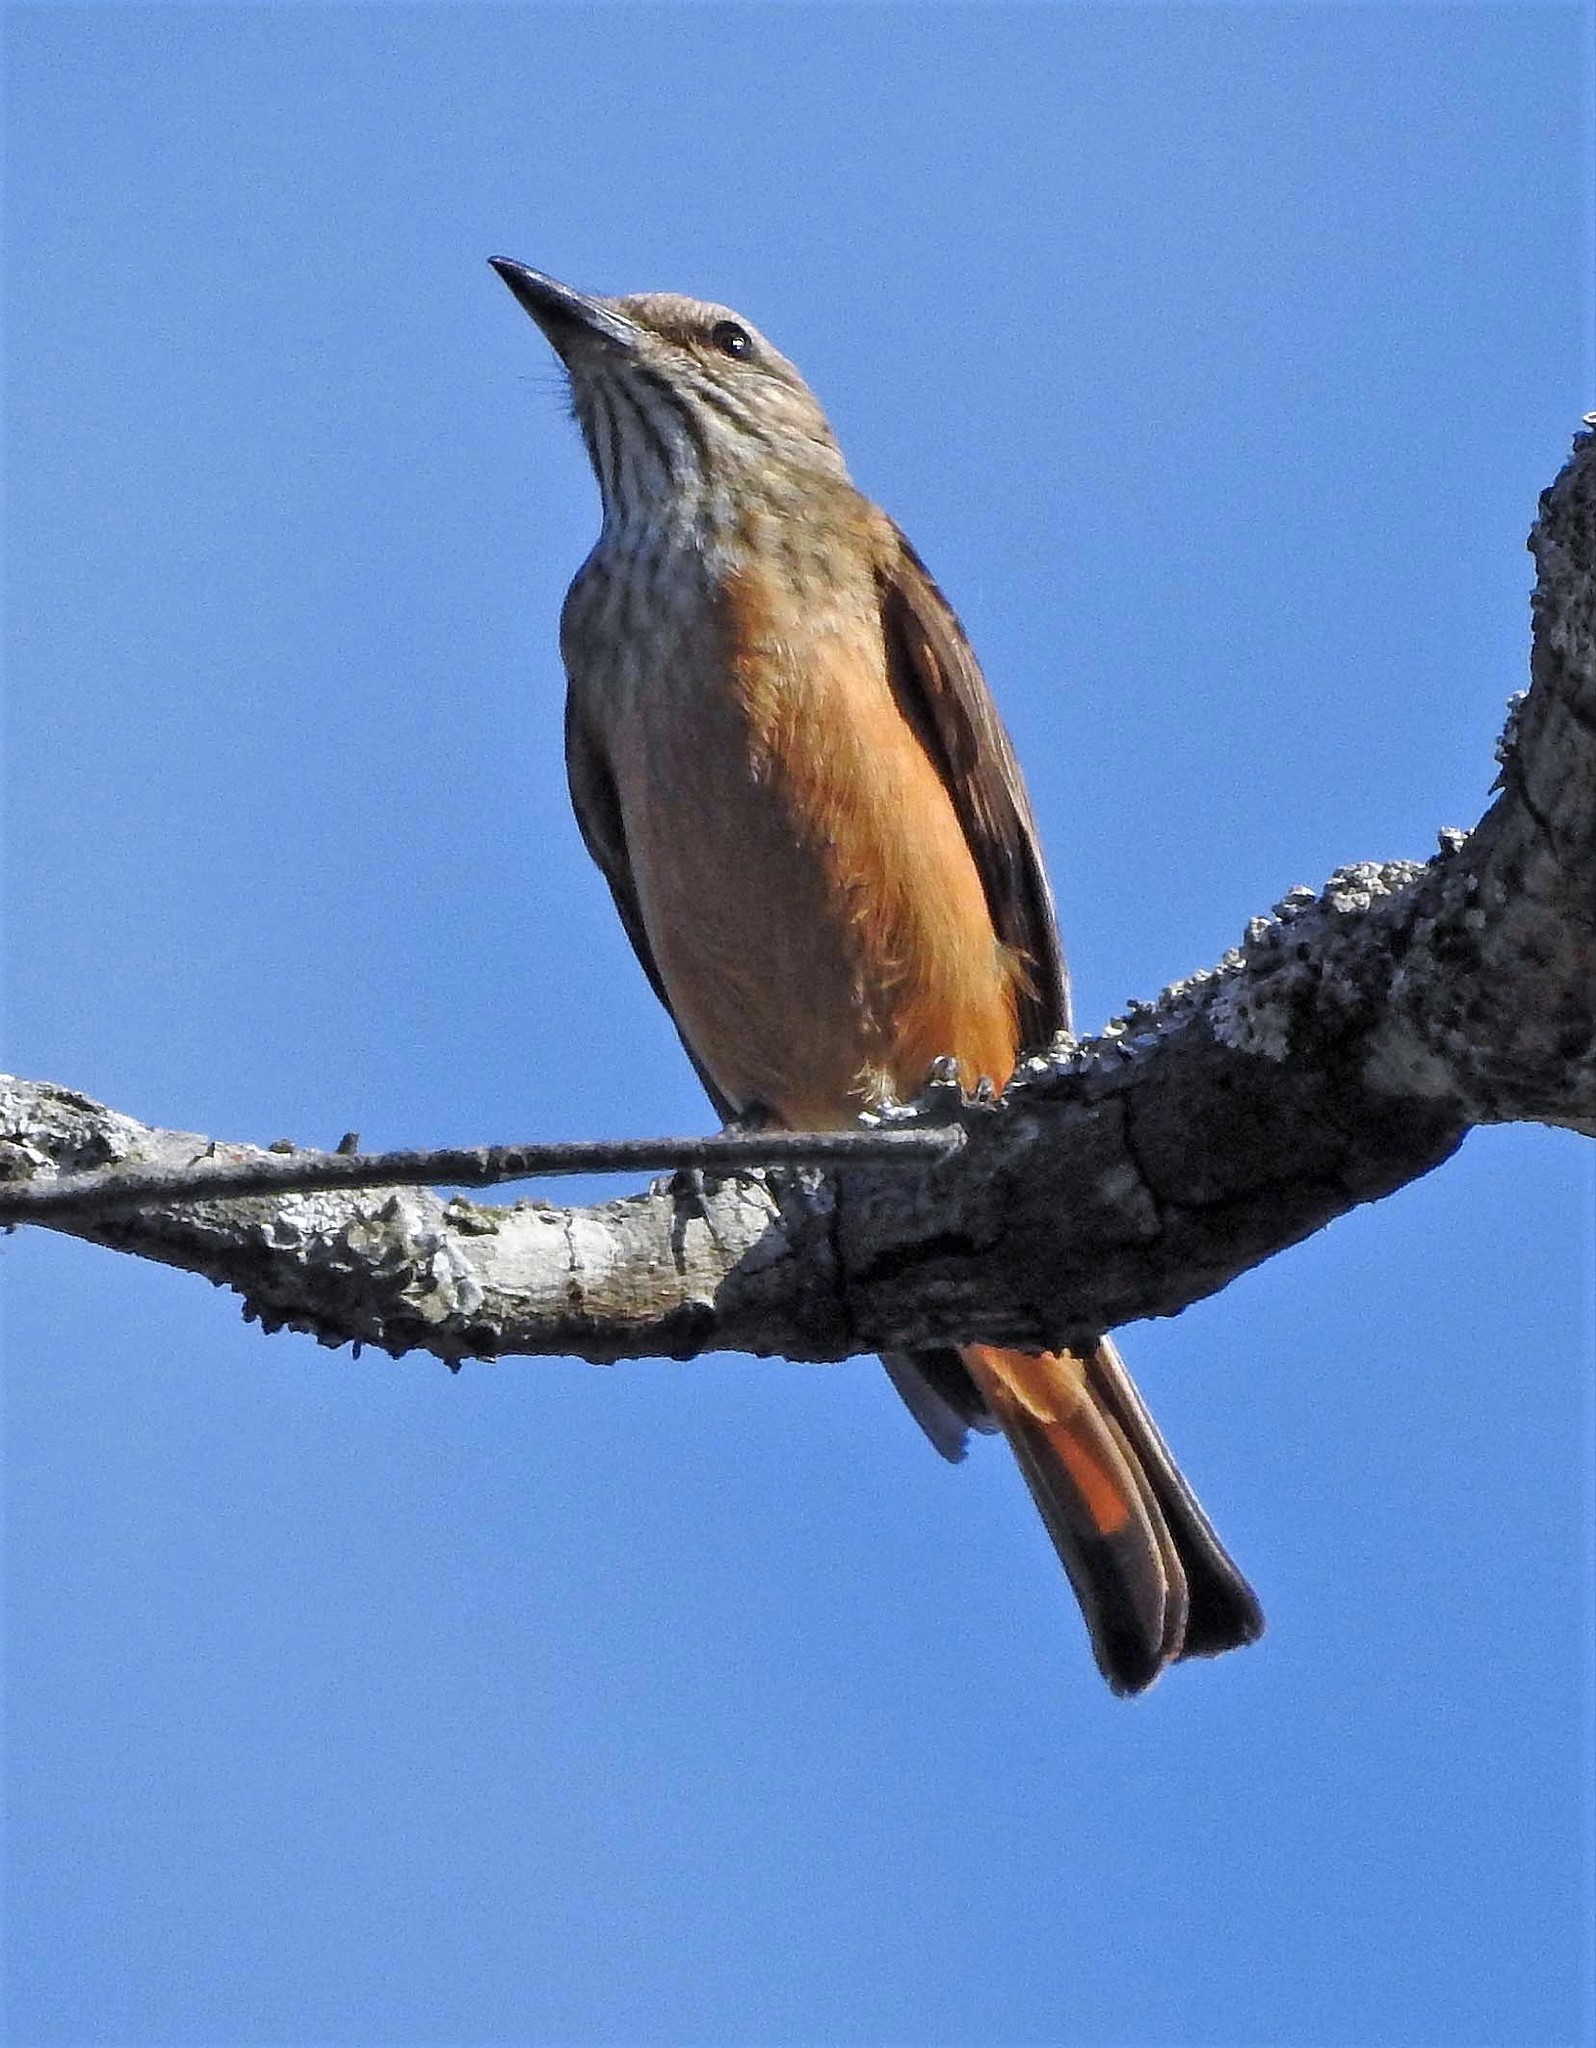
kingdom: Animalia
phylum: Chordata
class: Aves
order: Passeriformes
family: Tyrannidae
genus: Myiotheretes
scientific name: Myiotheretes striaticollis
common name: Streak-throated bush tyrant
